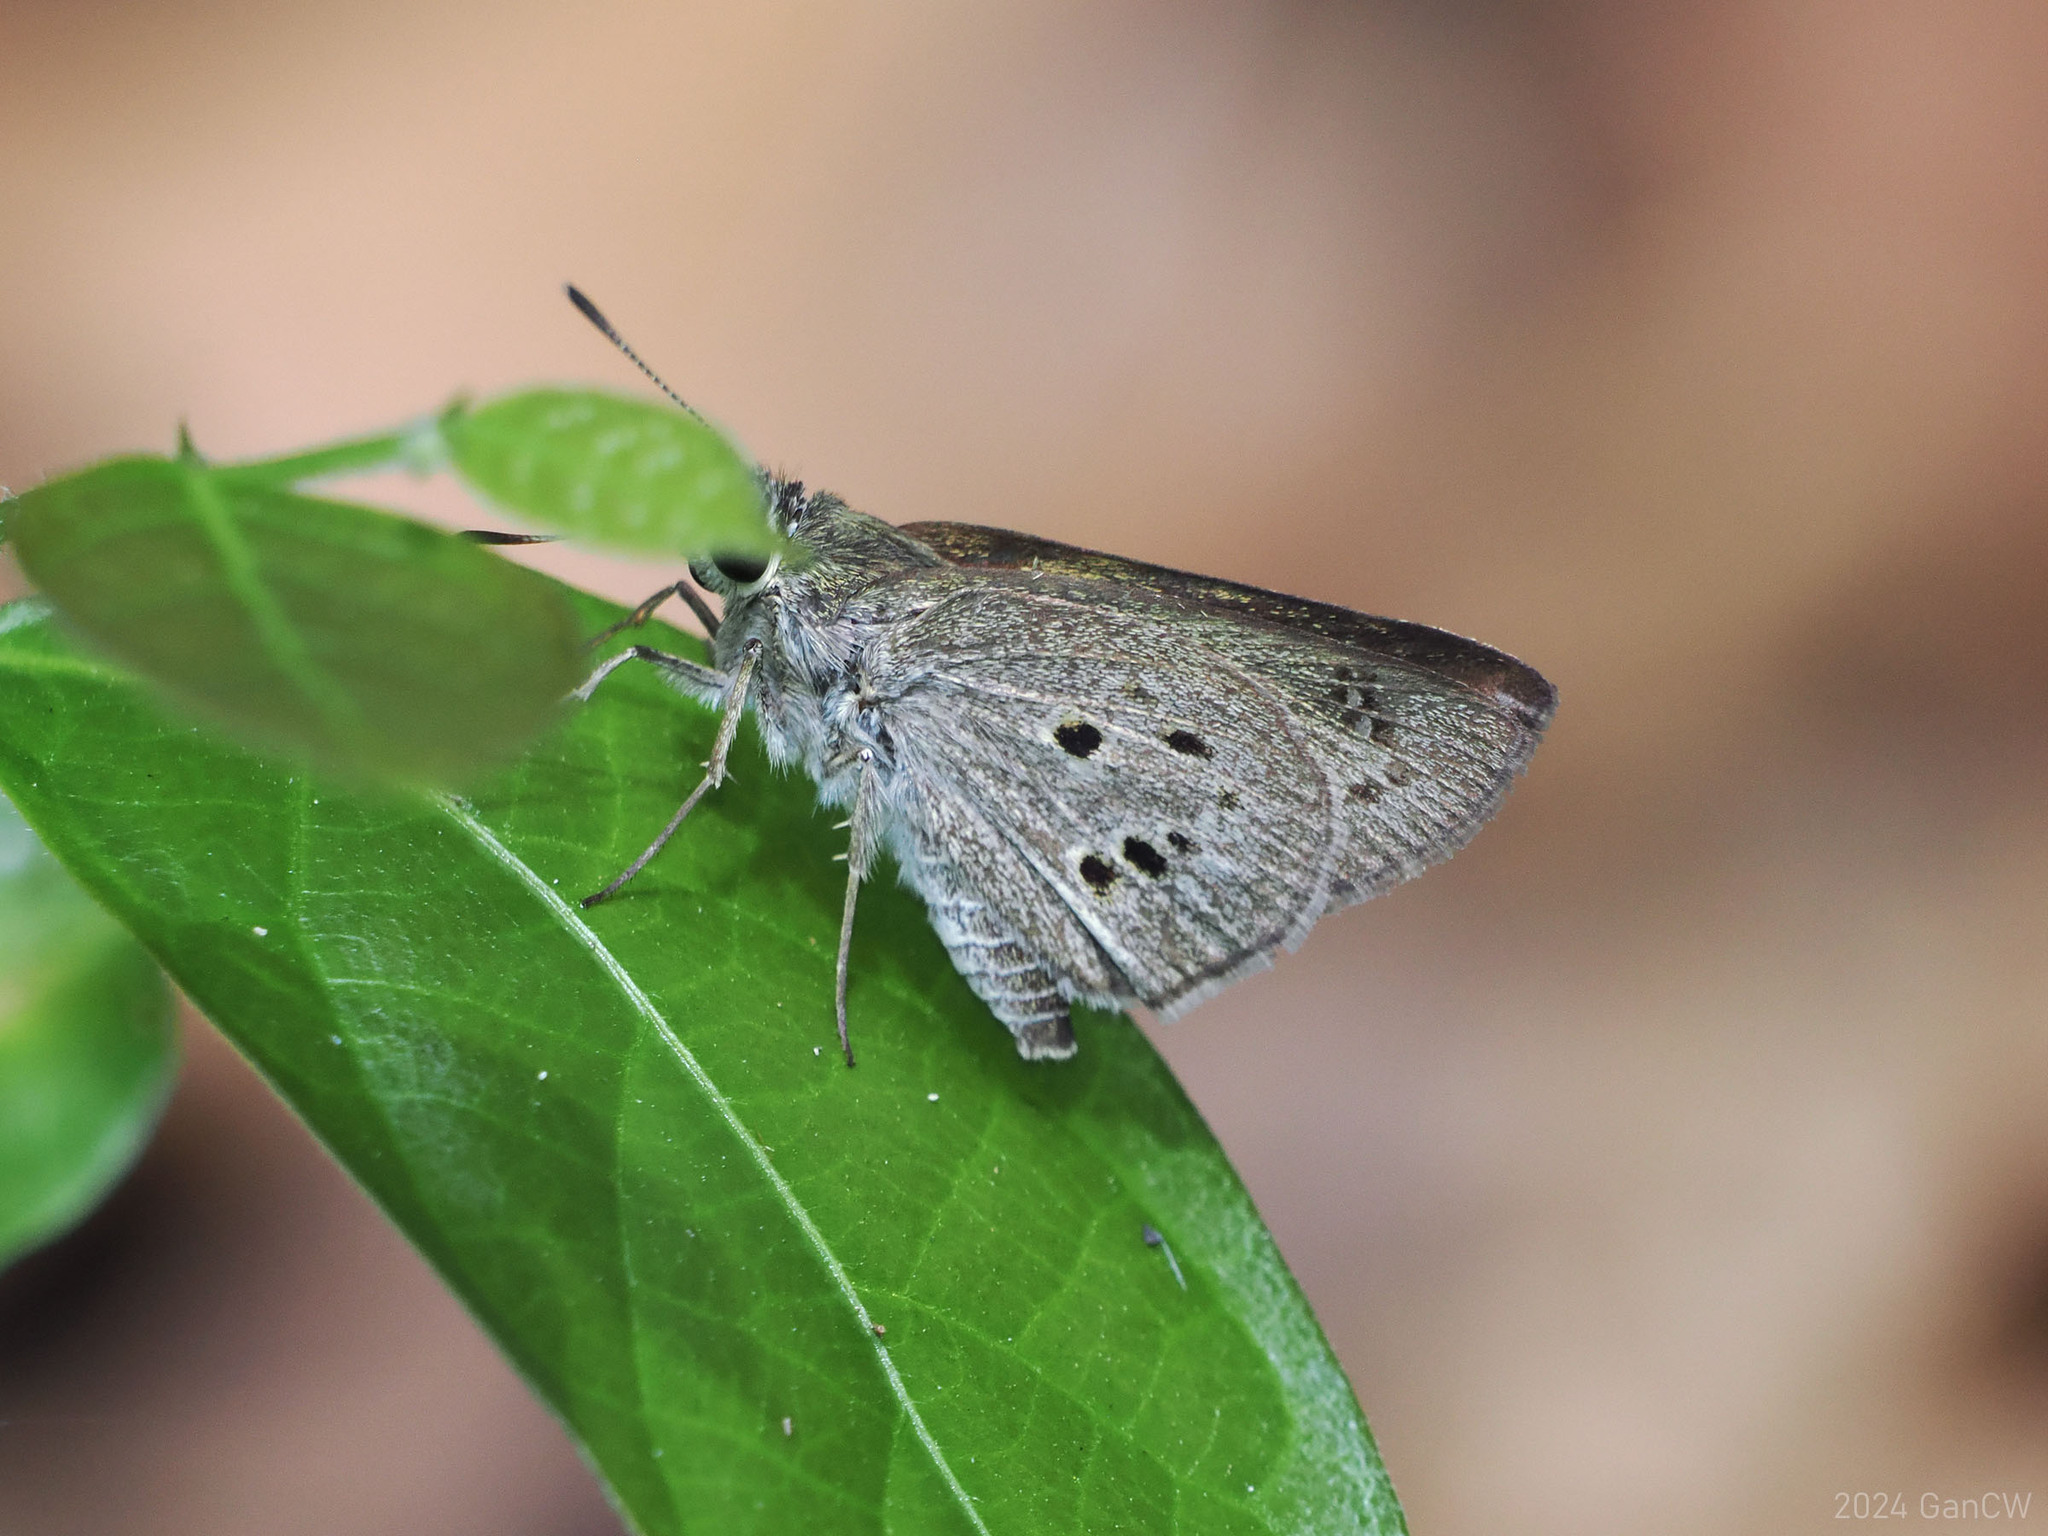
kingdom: Animalia
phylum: Arthropoda
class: Insecta
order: Lepidoptera
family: Hesperiidae
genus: Suastus
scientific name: Suastus gremius
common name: Indian palm bob
